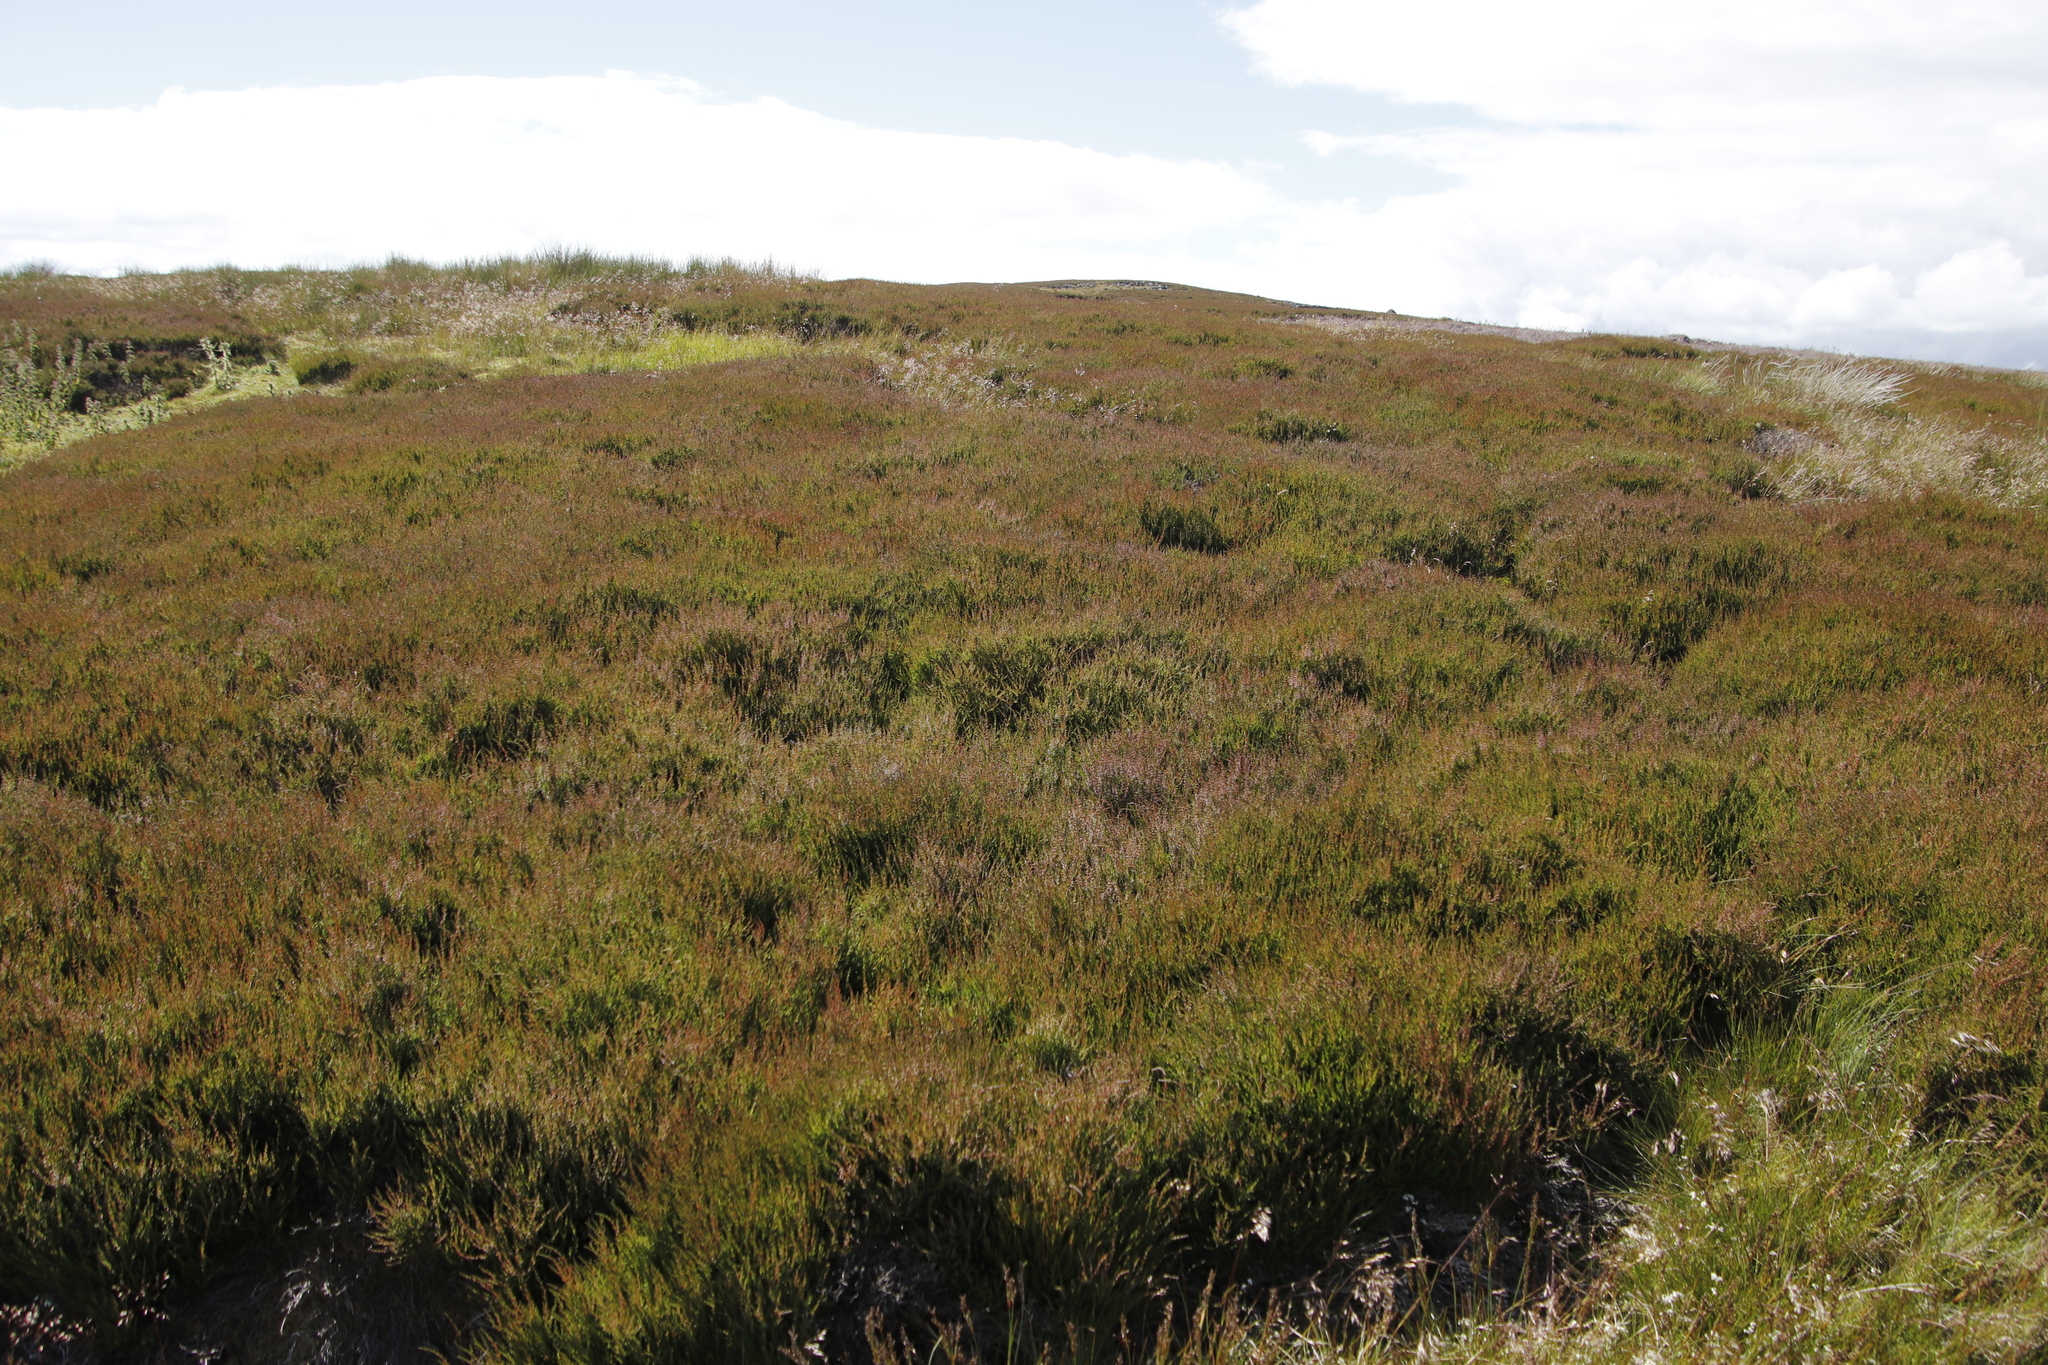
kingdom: Plantae
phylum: Tracheophyta
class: Magnoliopsida
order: Ericales
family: Ericaceae
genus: Calluna
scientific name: Calluna vulgaris
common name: Heather
